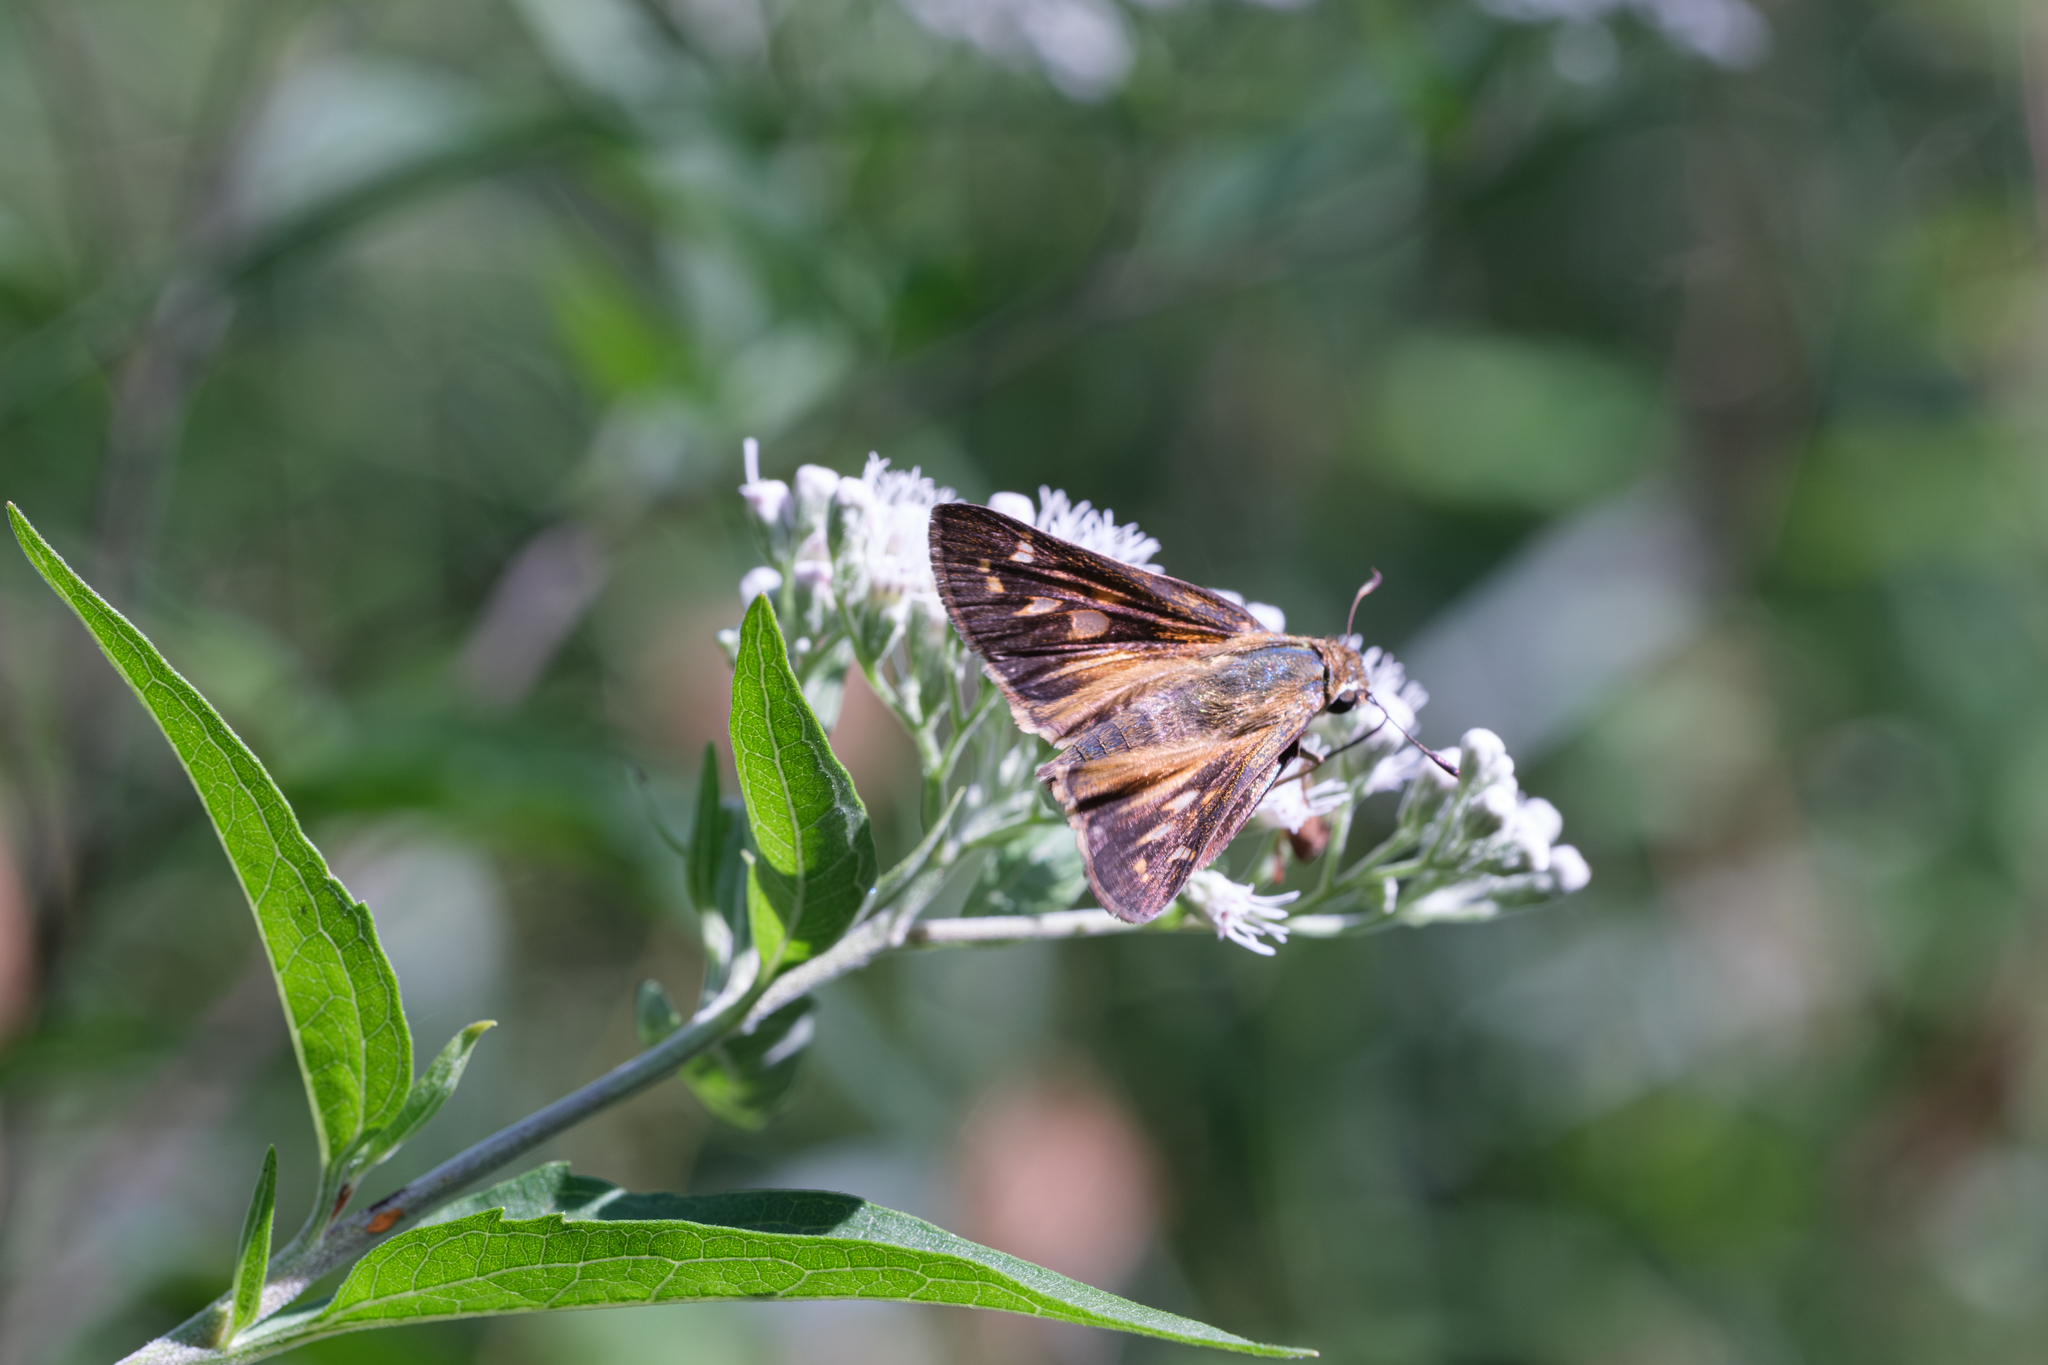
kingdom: Animalia
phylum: Arthropoda
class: Insecta
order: Lepidoptera
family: Hesperiidae
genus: Atalopedes
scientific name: Atalopedes
